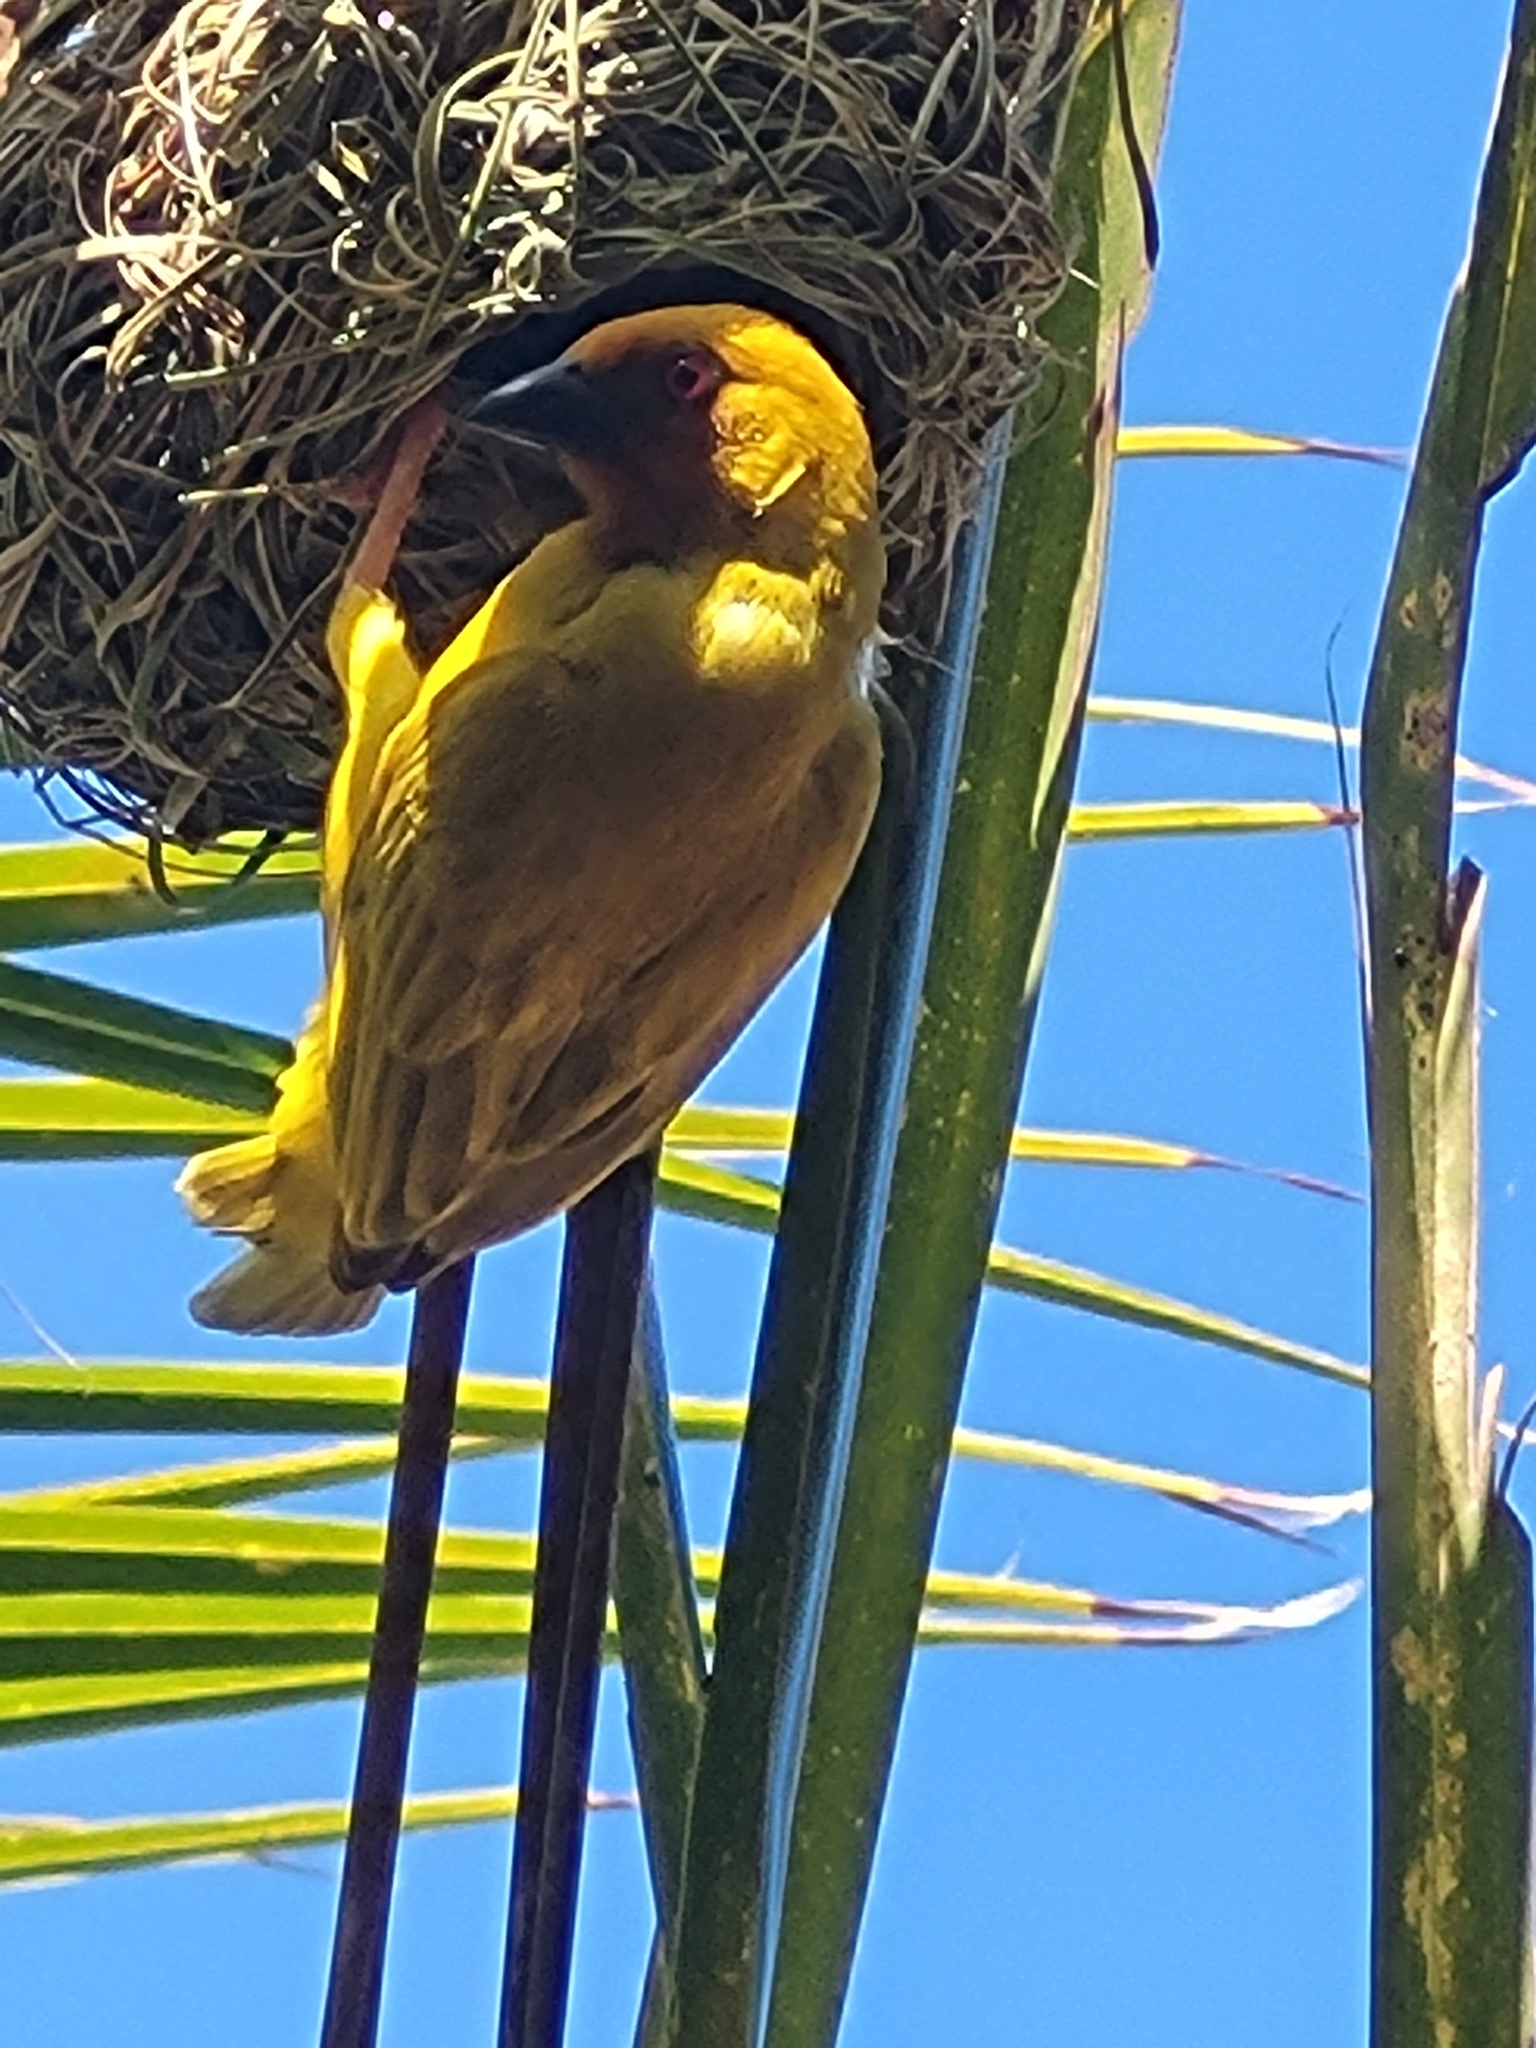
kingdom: Animalia
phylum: Chordata
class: Aves
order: Passeriformes
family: Ploceidae
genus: Ploceus
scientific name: Ploceus subaureus
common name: Yellow weaver
